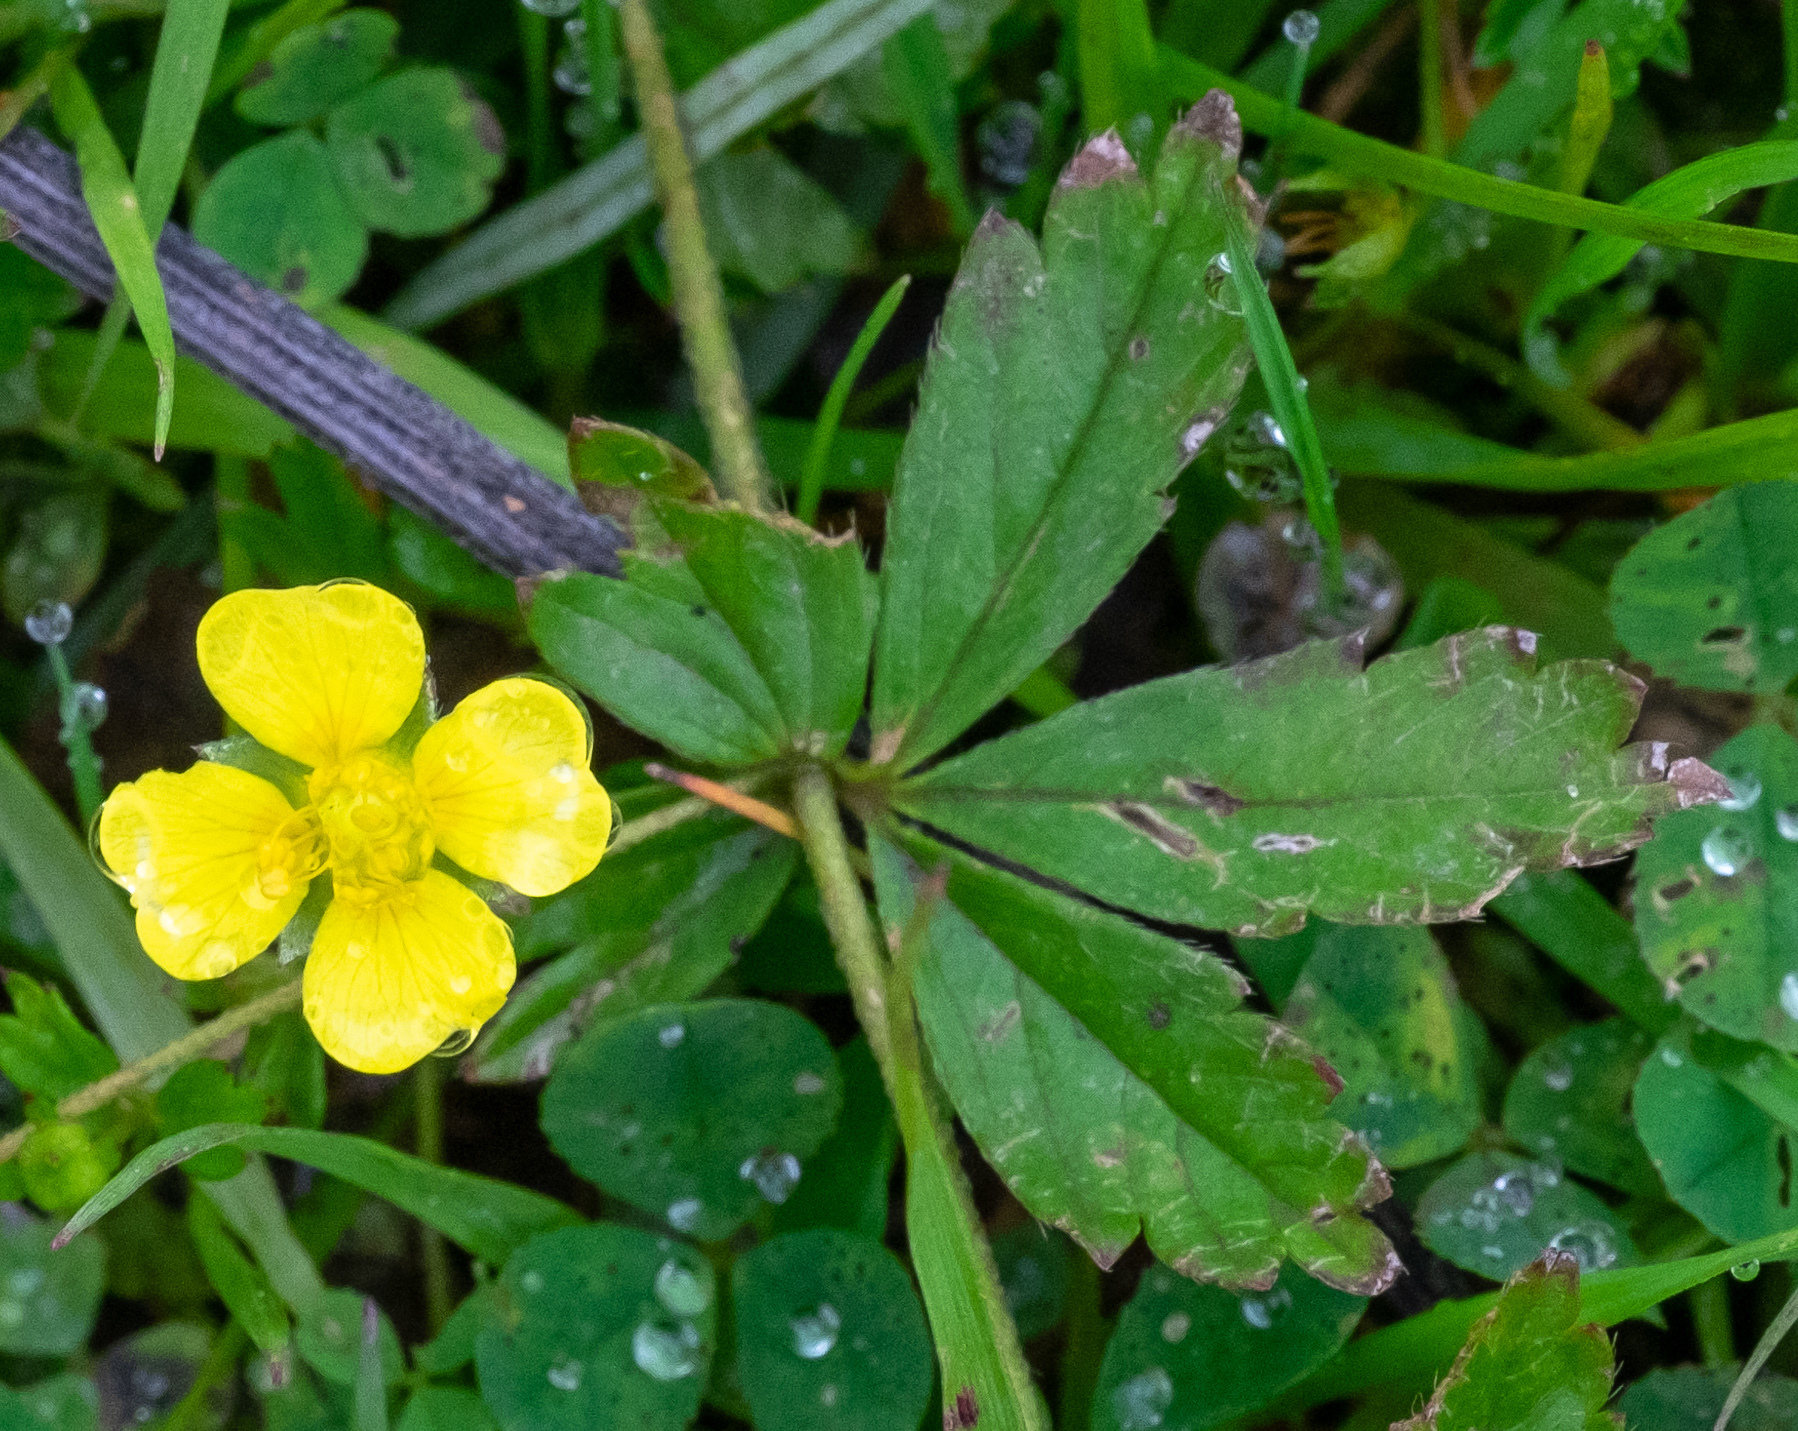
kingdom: Plantae
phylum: Tracheophyta
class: Magnoliopsida
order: Rosales
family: Rosaceae
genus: Potentilla
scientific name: Potentilla erecta
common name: Tormentil
